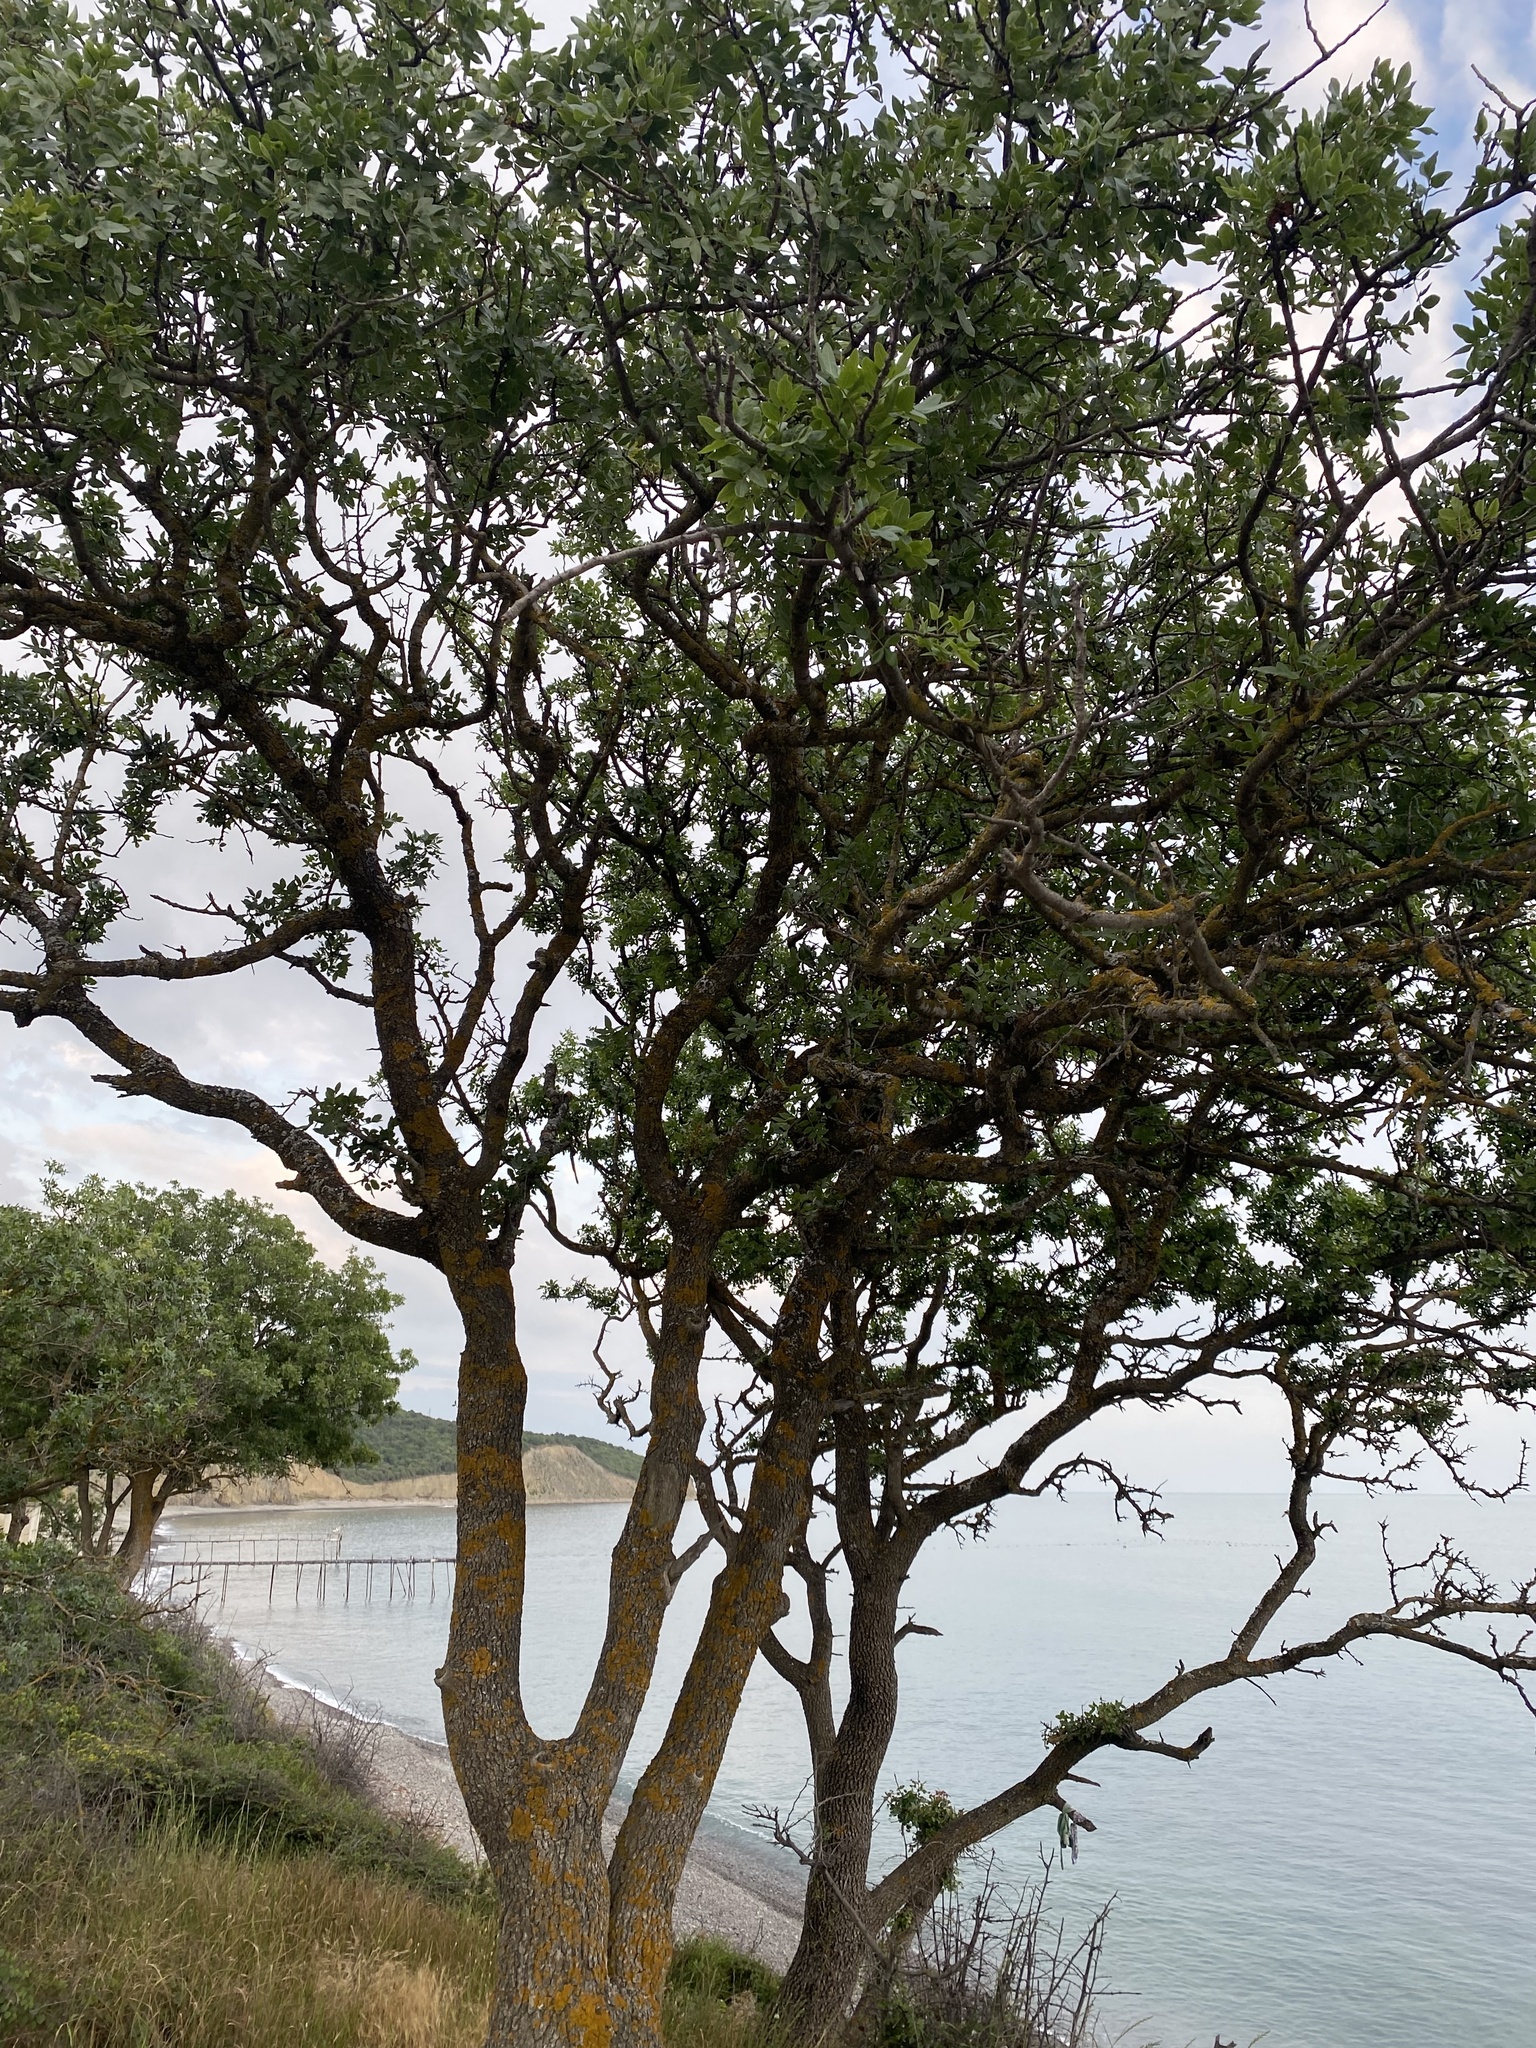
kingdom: Plantae
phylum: Tracheophyta
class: Magnoliopsida
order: Sapindales
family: Anacardiaceae
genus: Pistacia
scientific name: Pistacia atlantica
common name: Mt. atlas mastic tree
